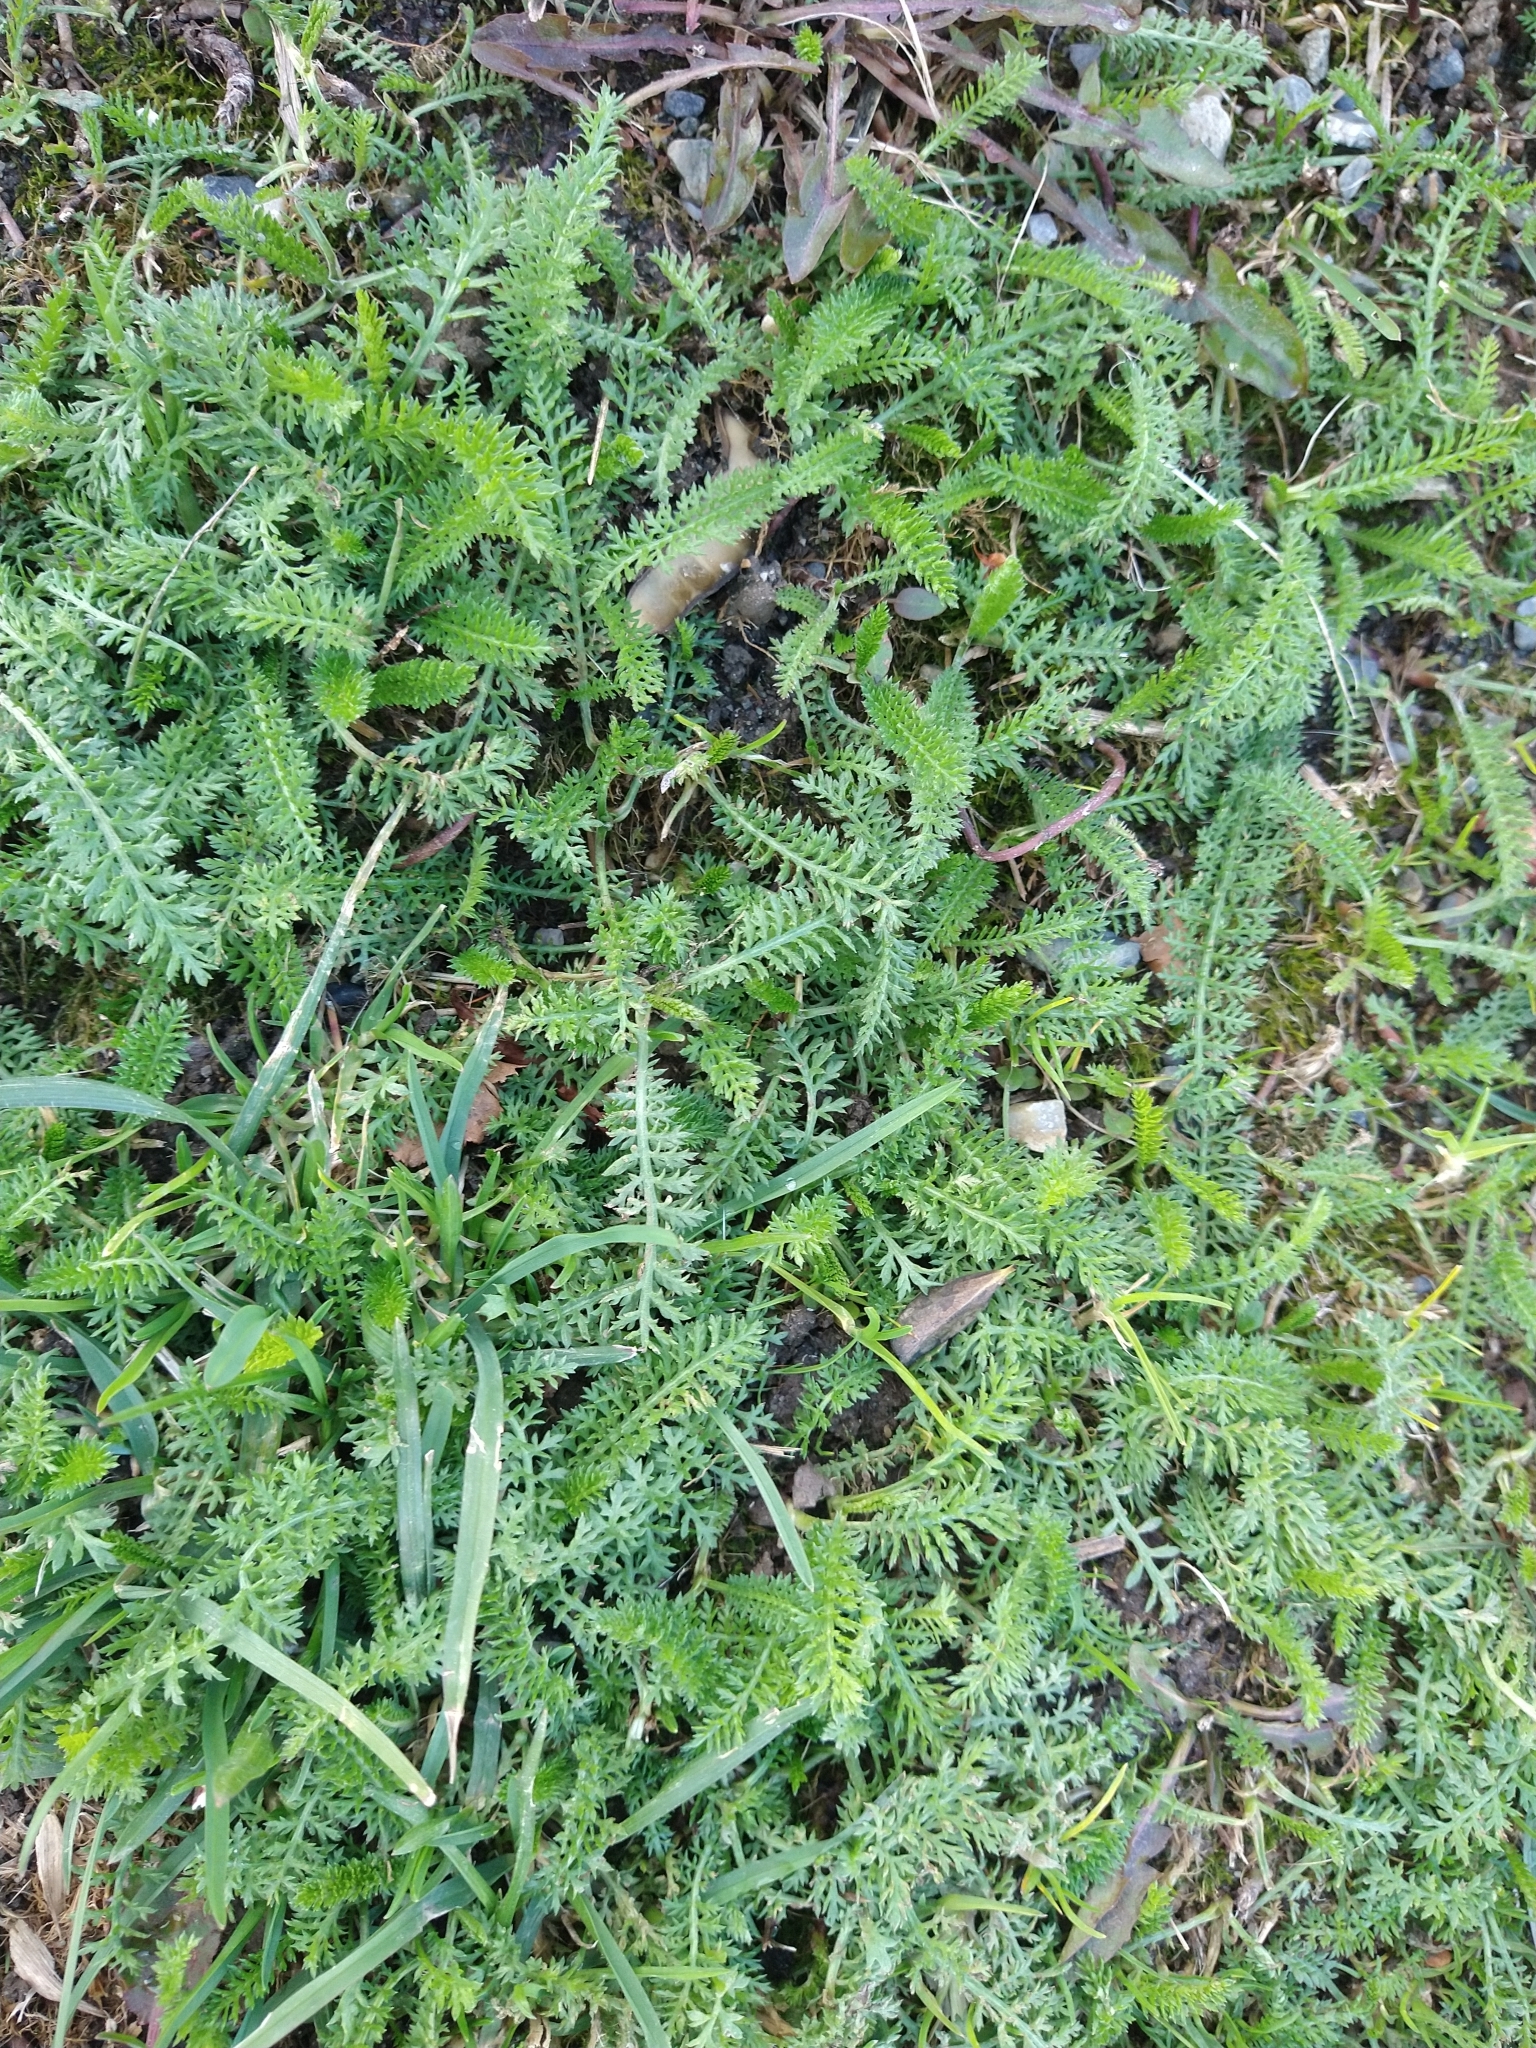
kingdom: Plantae
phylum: Tracheophyta
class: Magnoliopsida
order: Asterales
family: Asteraceae
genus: Achillea
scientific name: Achillea millefolium
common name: Yarrow
